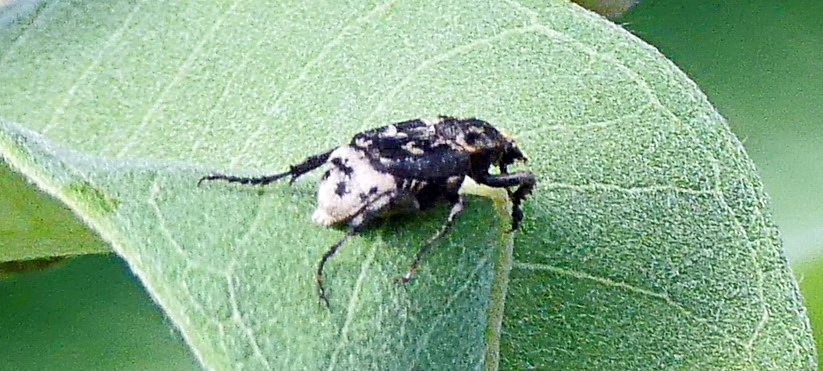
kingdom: Animalia
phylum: Arthropoda
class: Insecta
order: Coleoptera
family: Scarabaeidae
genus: Valgus
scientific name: Valgus hemipterus
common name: Bug flower chafer
